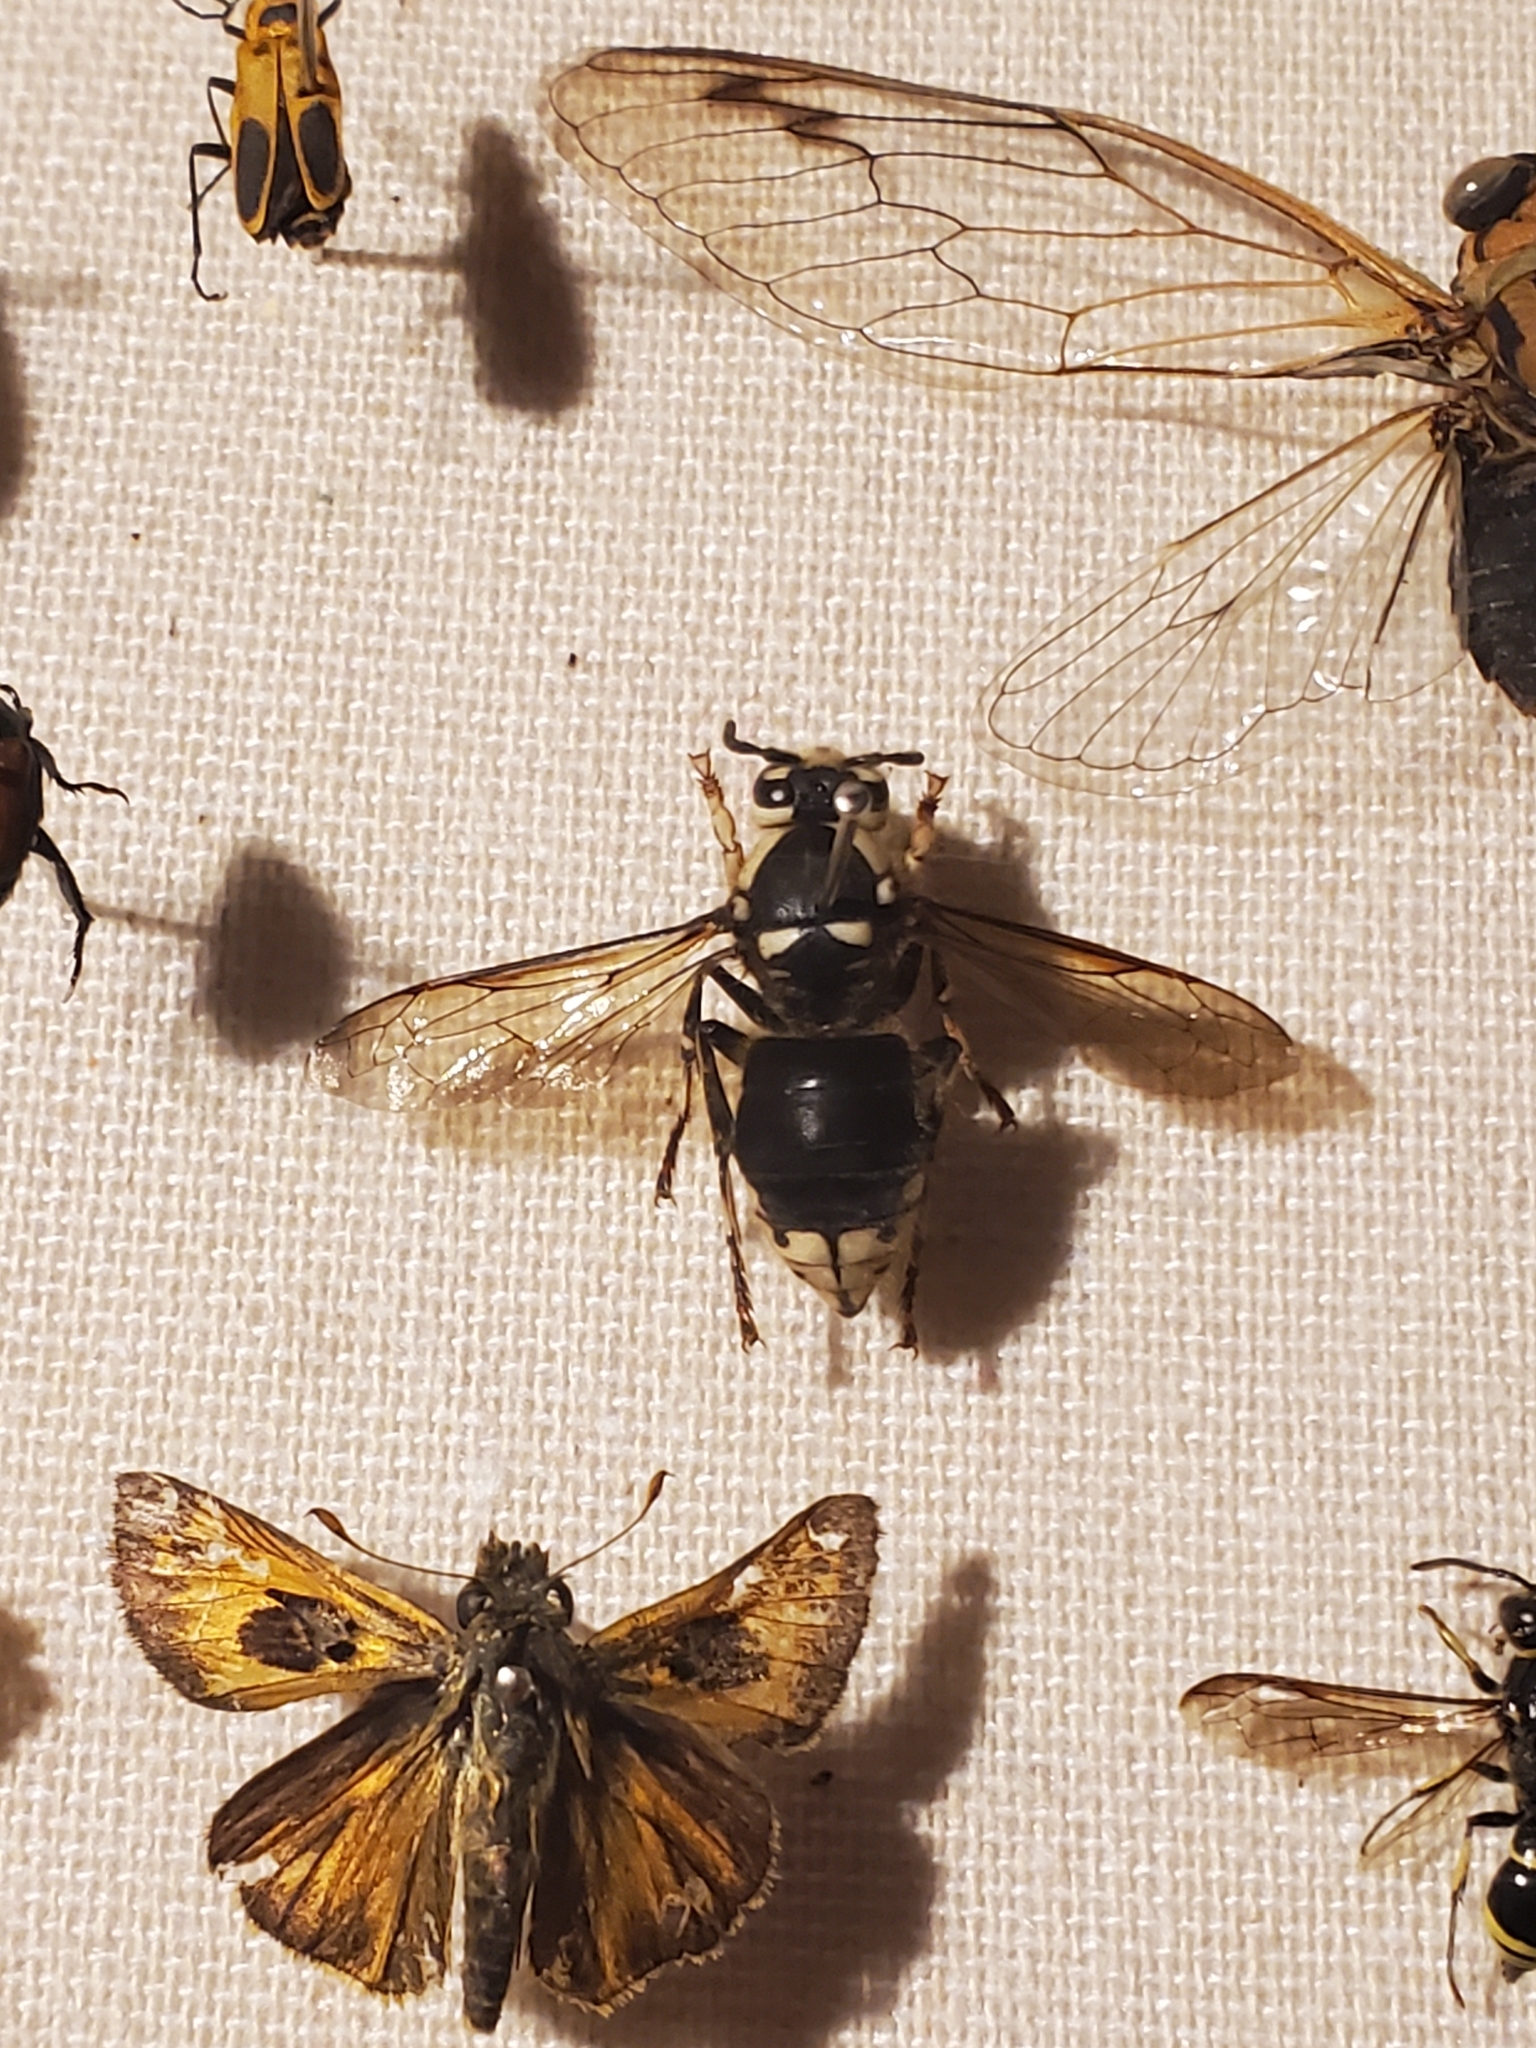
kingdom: Animalia
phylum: Arthropoda
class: Insecta
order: Hymenoptera
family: Vespidae
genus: Dolichovespula
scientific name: Dolichovespula maculata
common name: Bald-faced hornet
